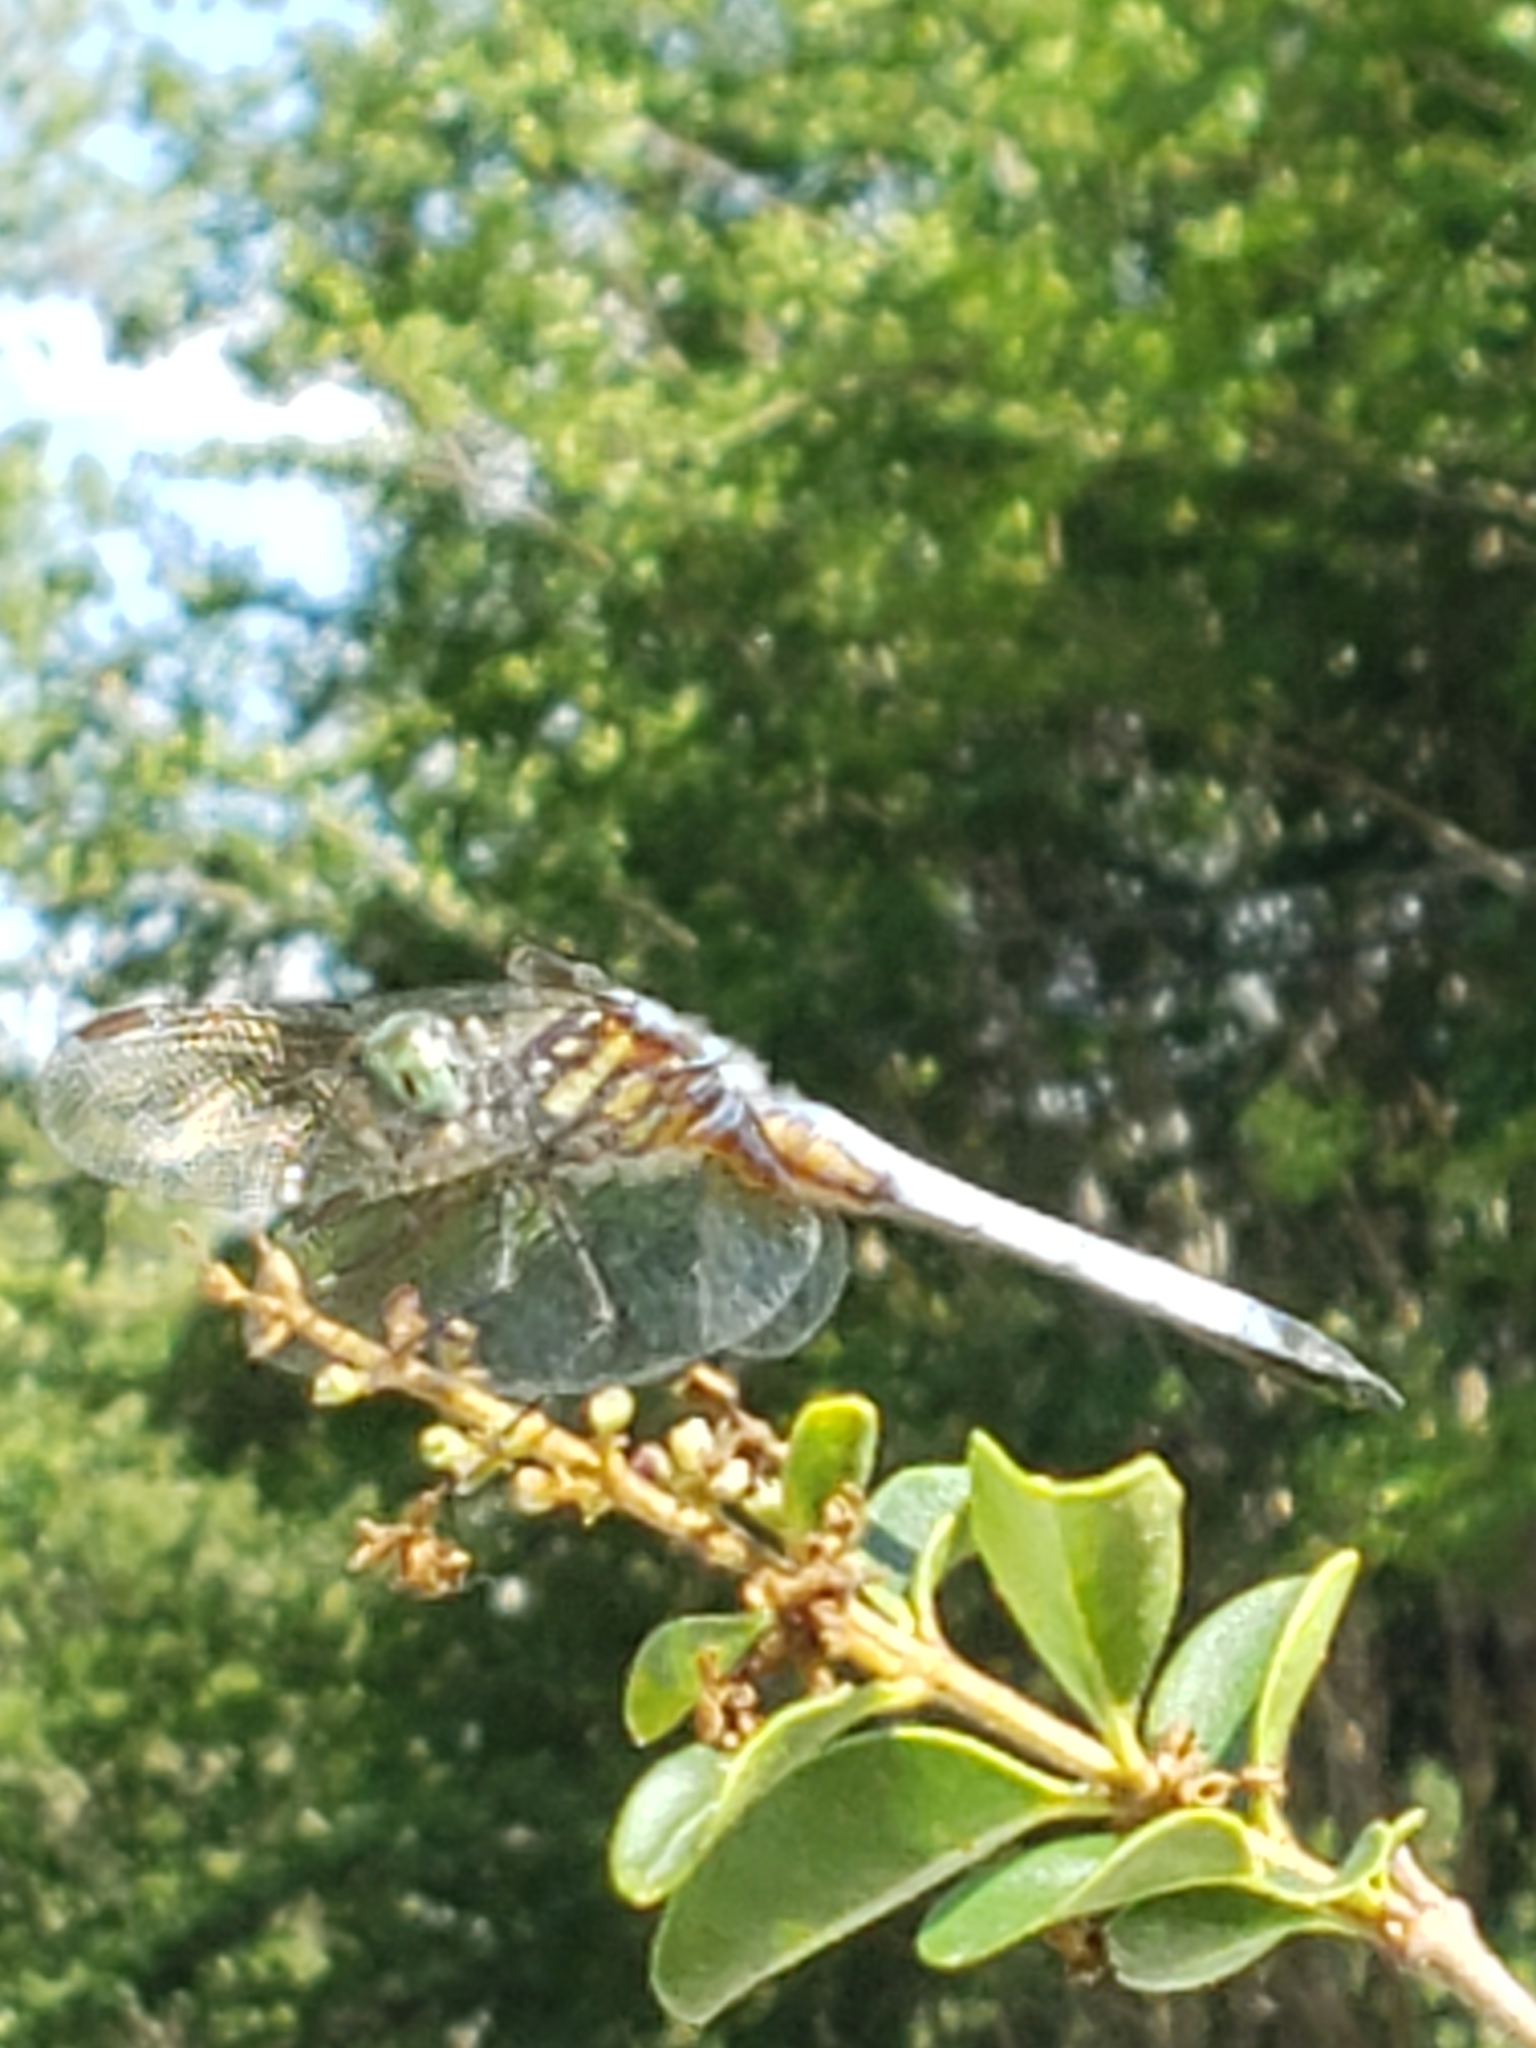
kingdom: Animalia
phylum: Arthropoda
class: Insecta
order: Odonata
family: Libellulidae
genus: Pachydiplax
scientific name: Pachydiplax longipennis
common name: Blue dasher
